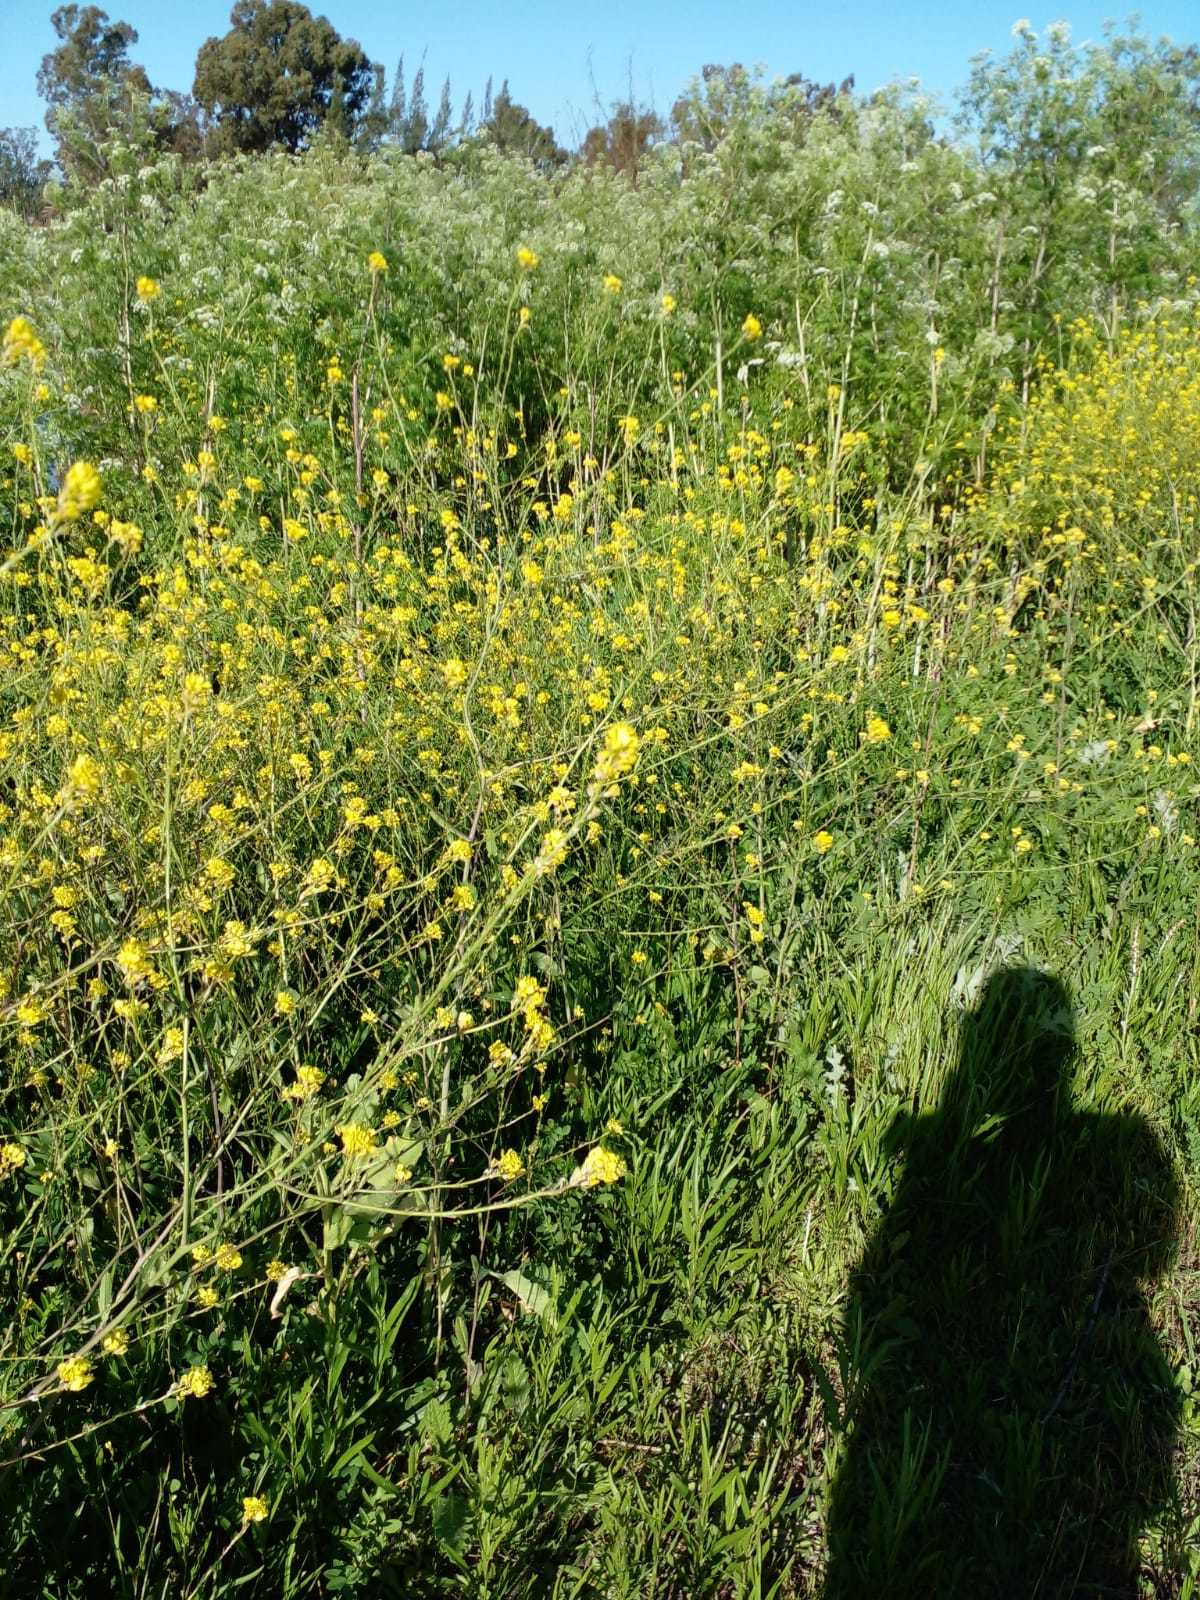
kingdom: Plantae
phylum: Tracheophyta
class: Magnoliopsida
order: Brassicales
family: Brassicaceae
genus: Rapistrum
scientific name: Rapistrum rugosum
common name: Annual bastardcabbage
